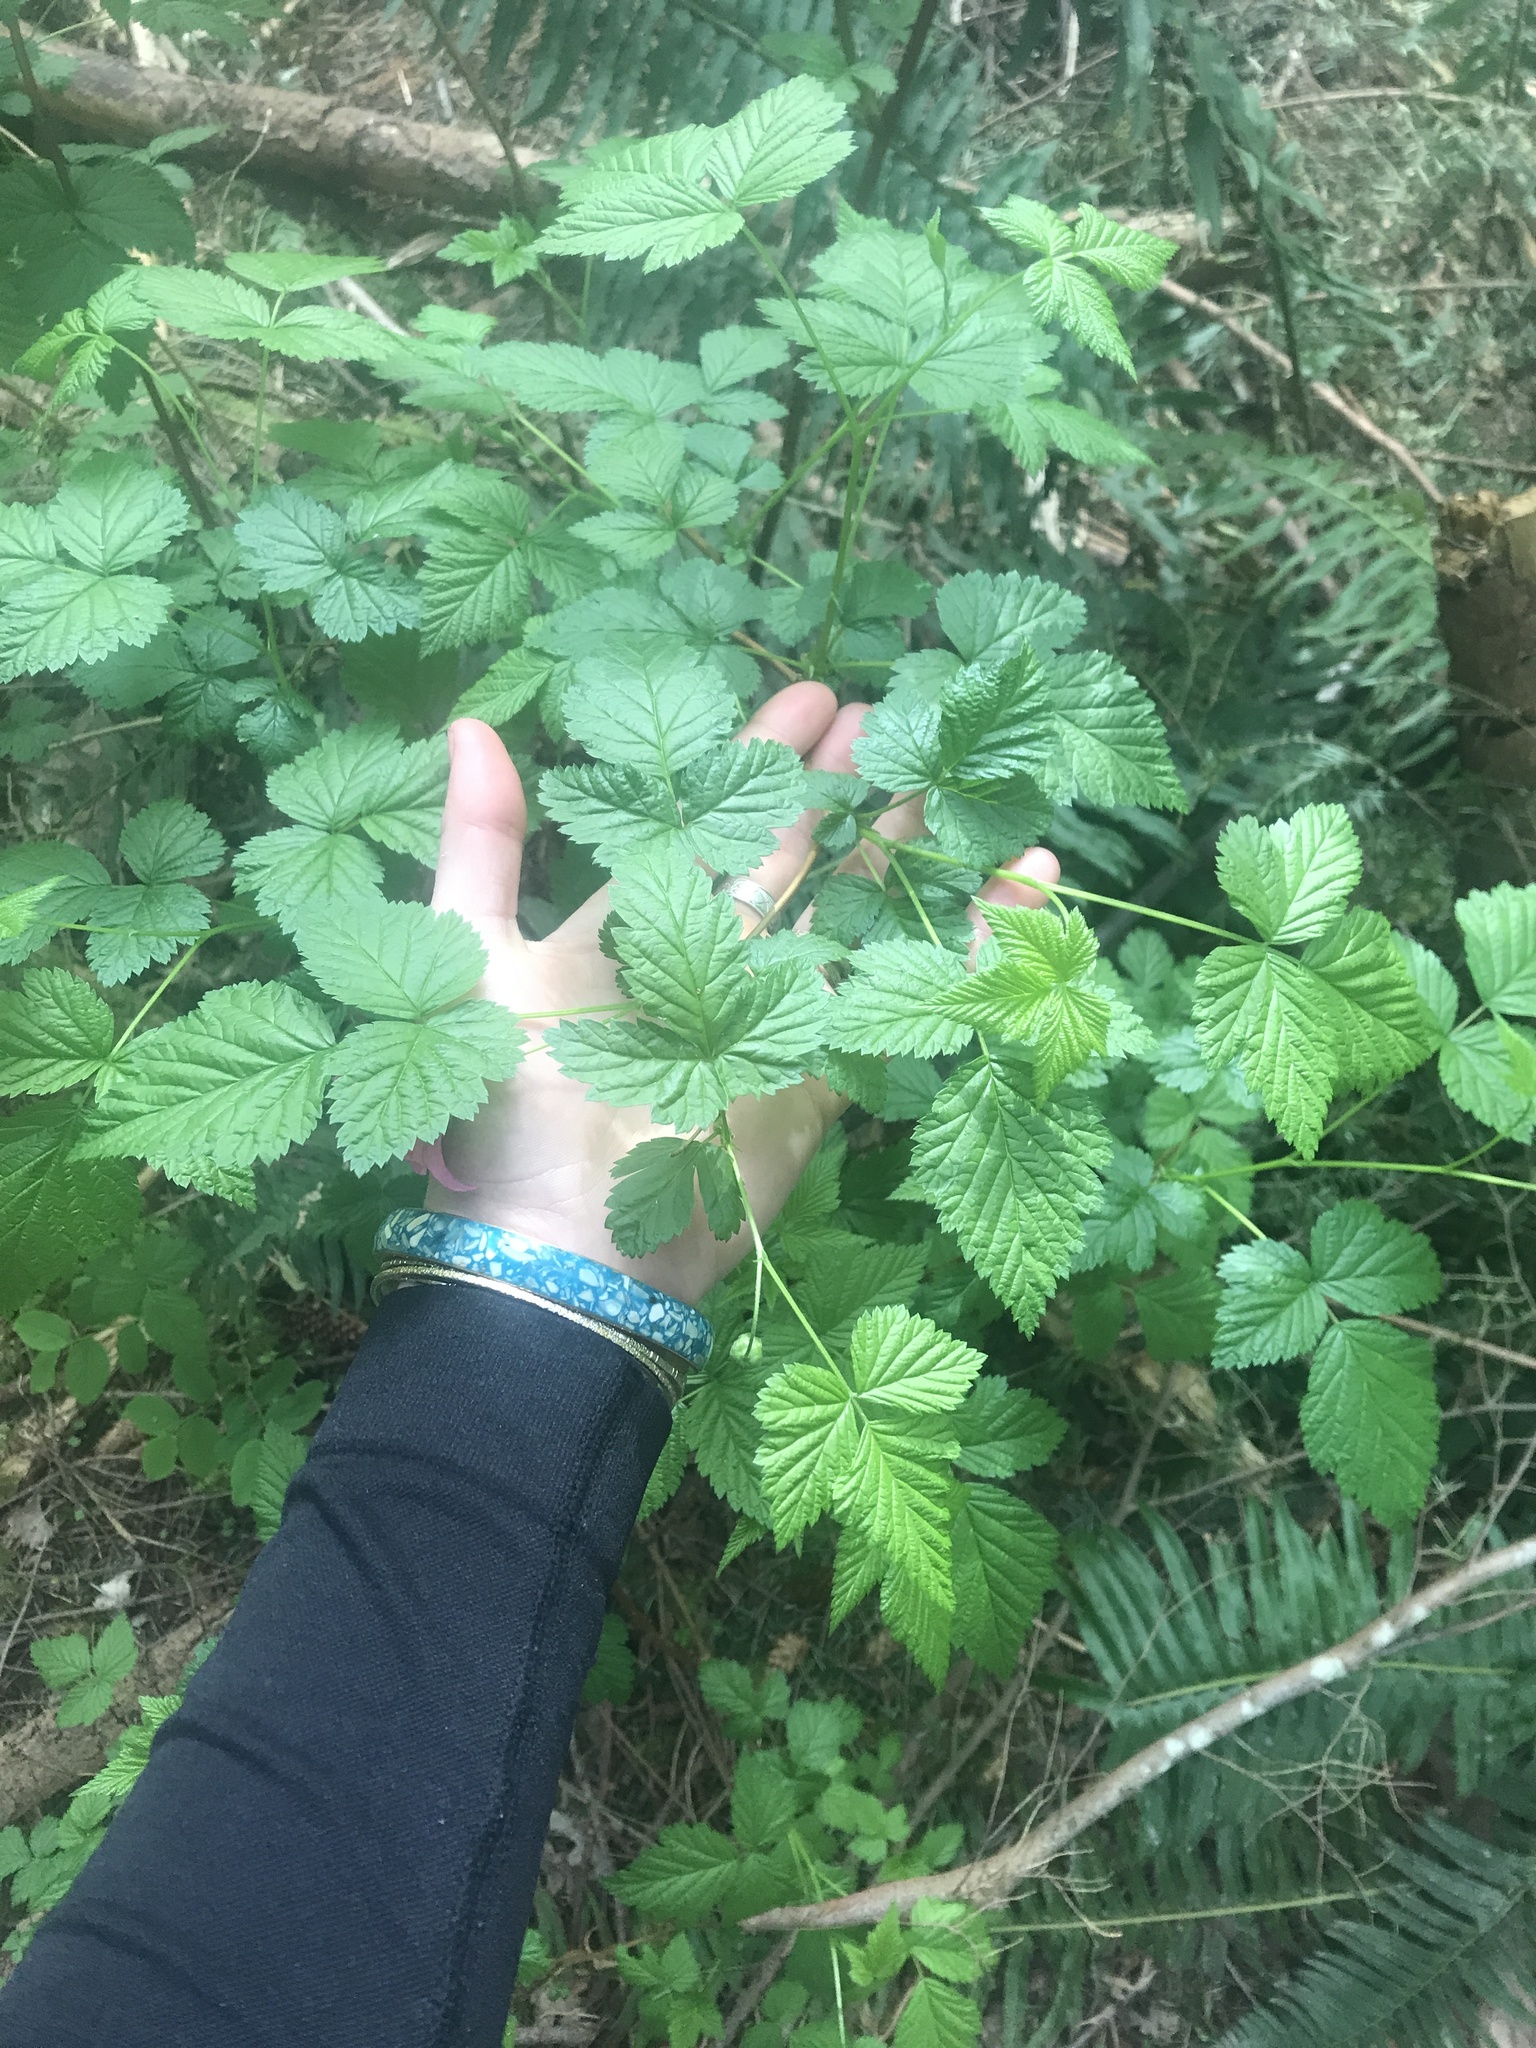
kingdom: Plantae
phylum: Tracheophyta
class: Magnoliopsida
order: Rosales
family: Rosaceae
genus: Rubus
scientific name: Rubus spectabilis
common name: Salmonberry
